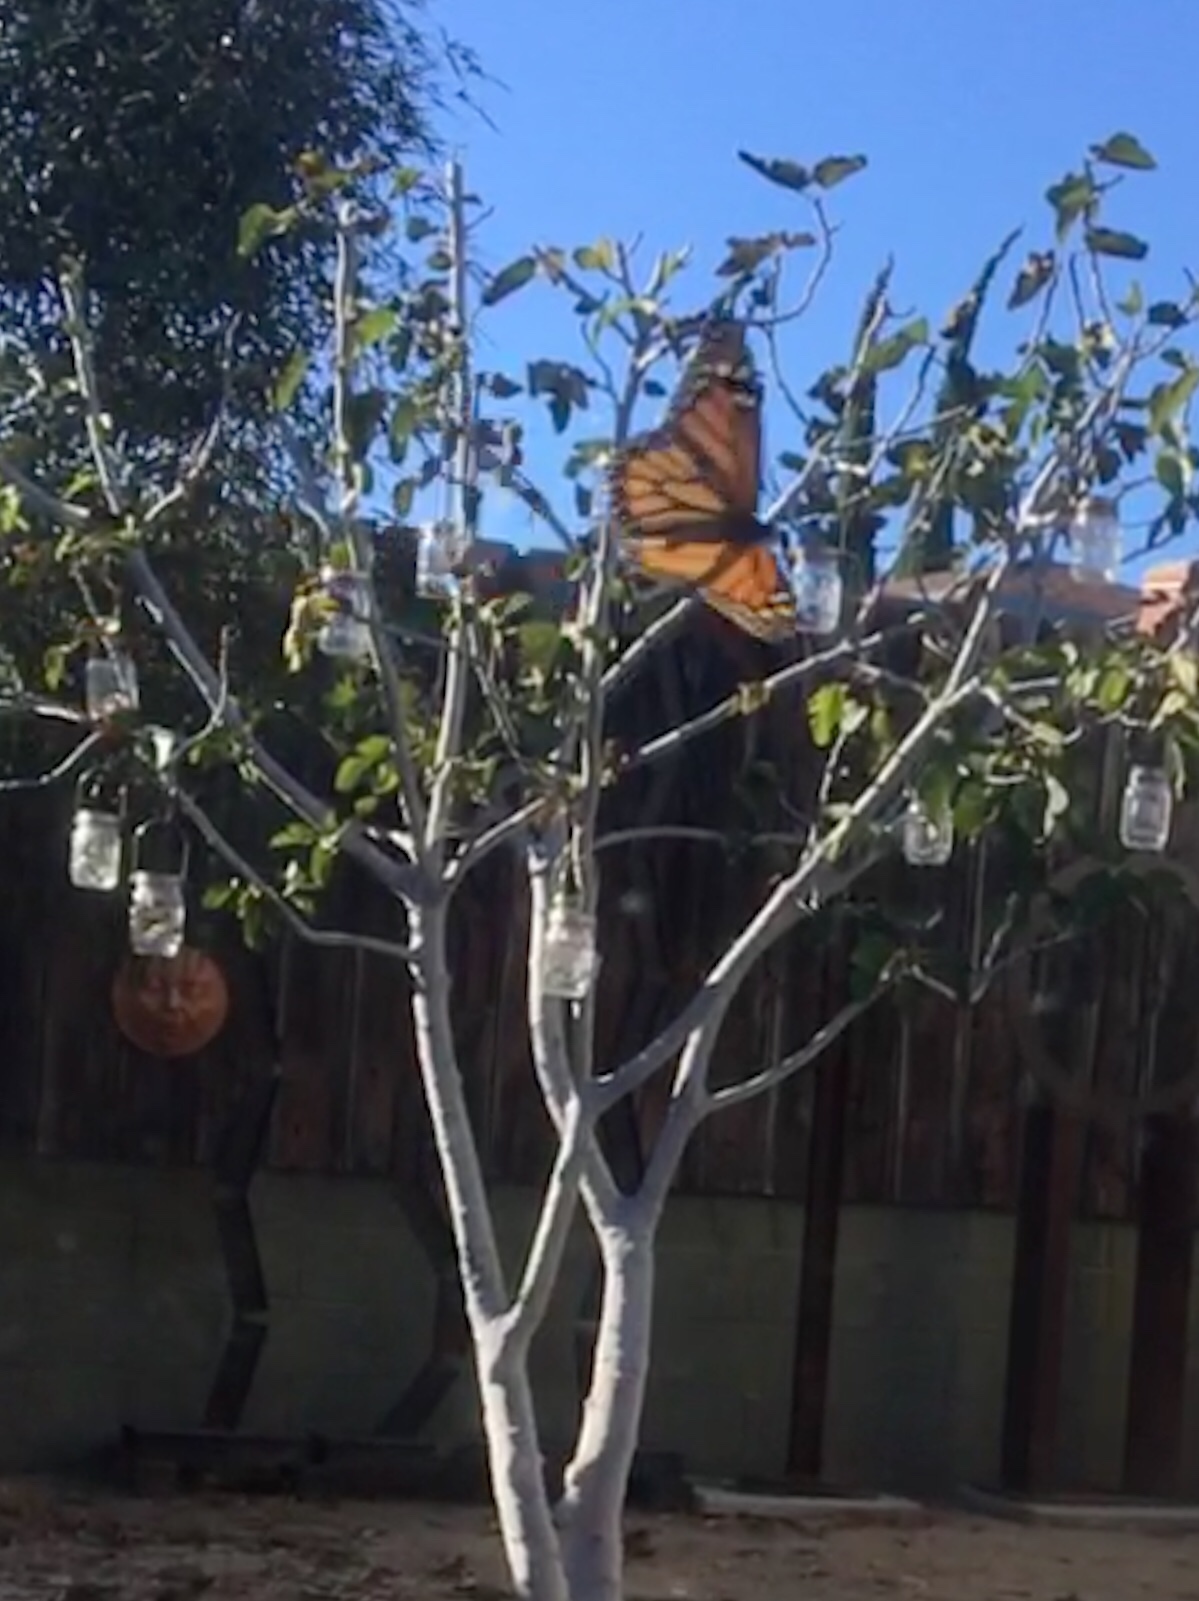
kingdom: Animalia
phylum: Arthropoda
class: Insecta
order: Lepidoptera
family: Nymphalidae
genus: Danaus
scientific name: Danaus plexippus
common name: Monarch
